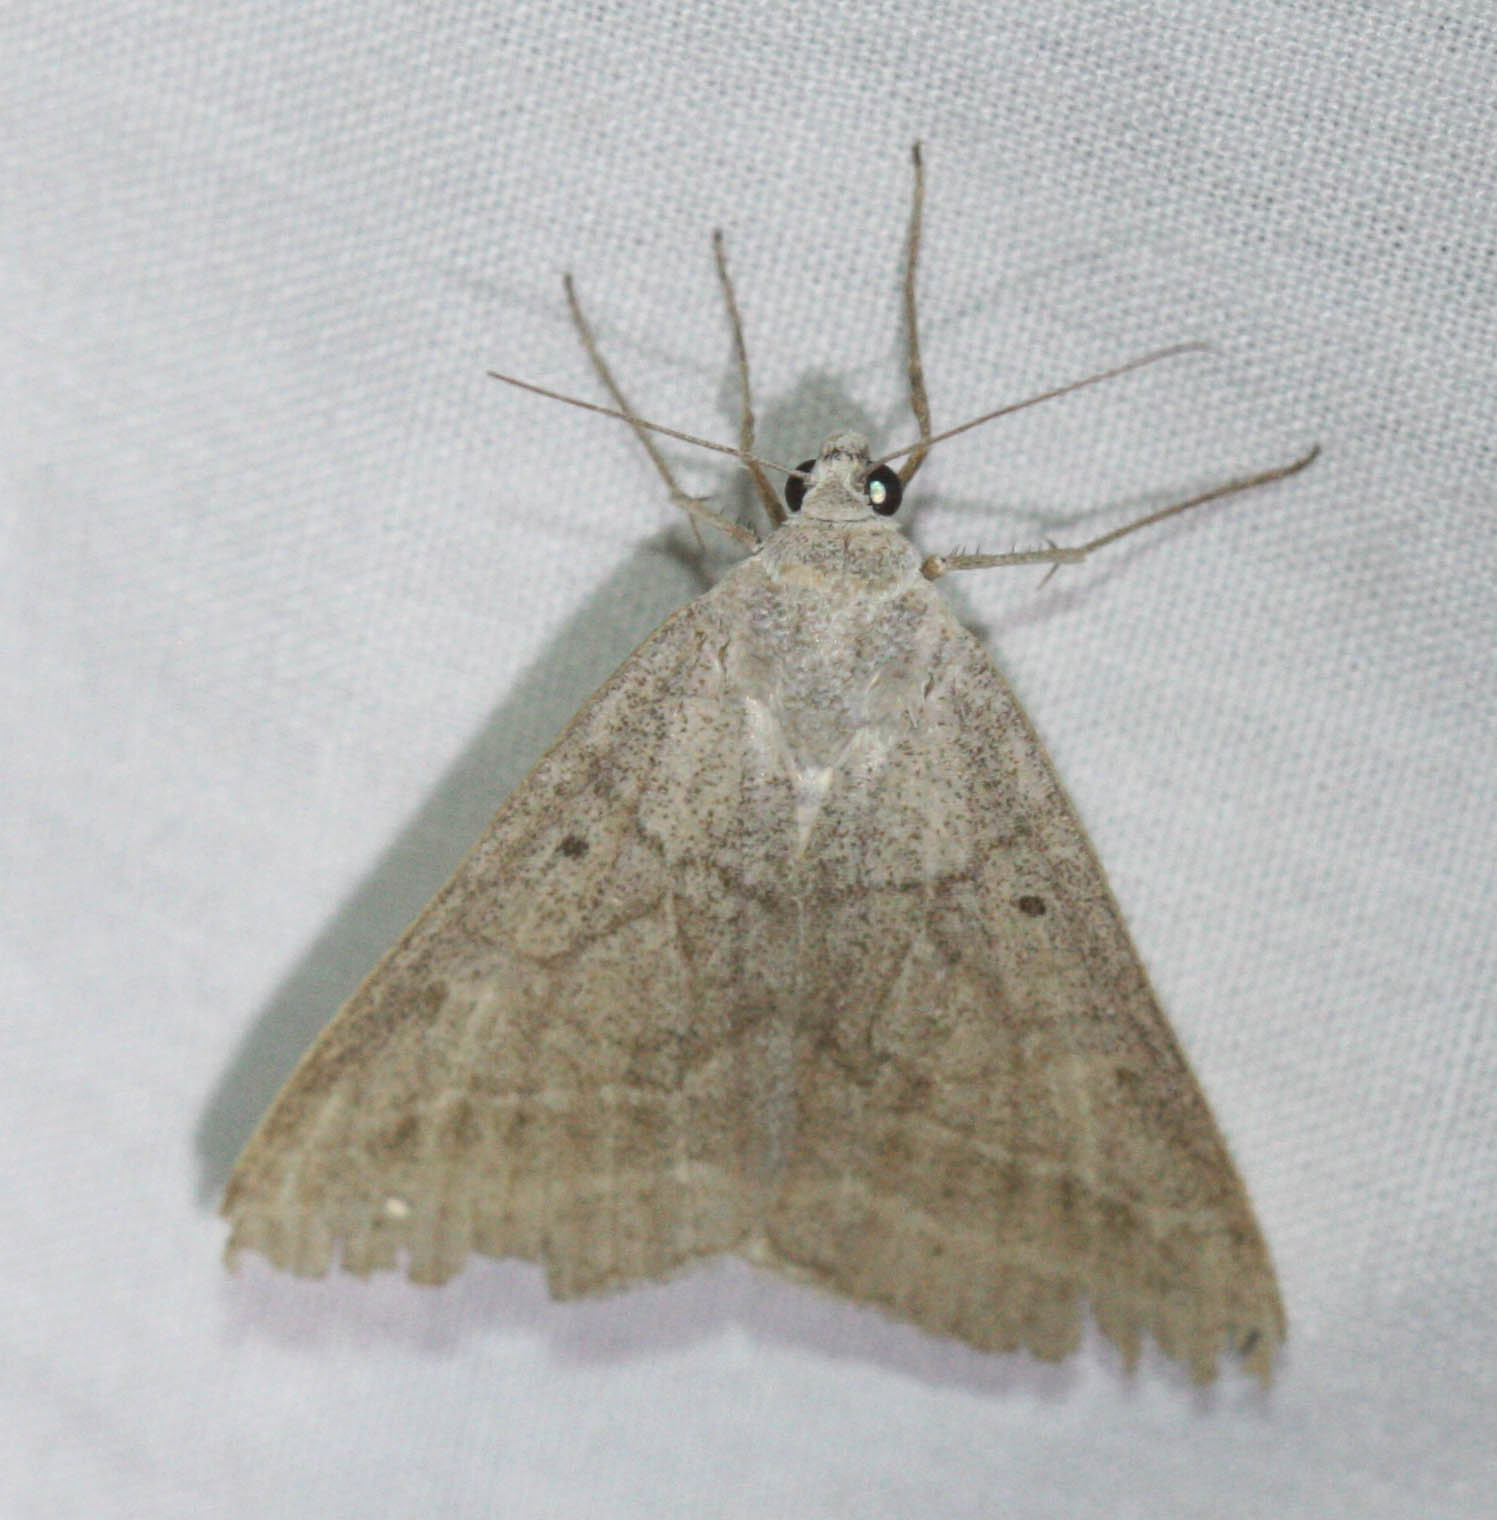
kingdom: Animalia
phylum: Arthropoda
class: Insecta
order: Lepidoptera
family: Erebidae
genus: Caenurgia
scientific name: Caenurgia togataria
